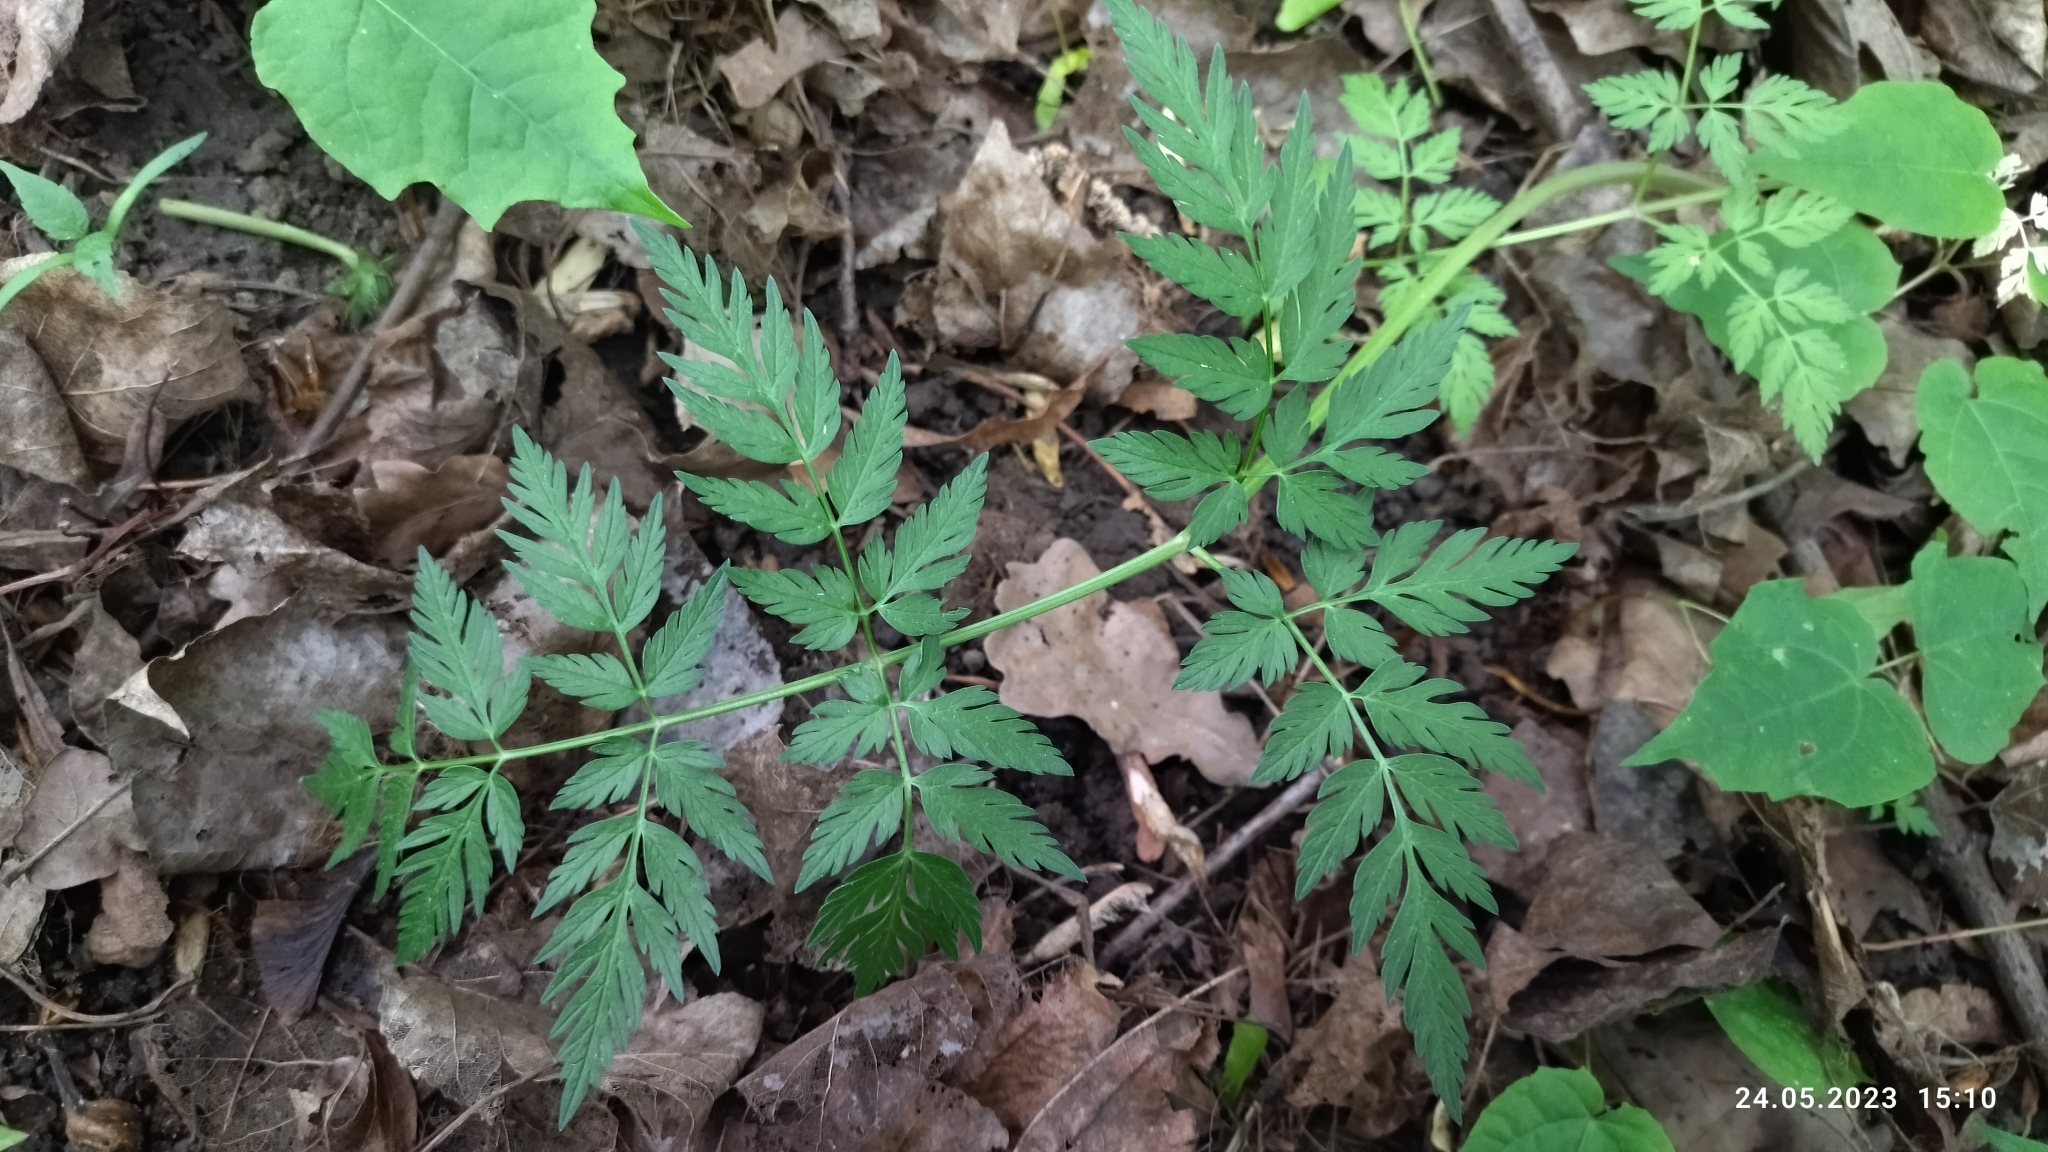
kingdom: Plantae
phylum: Tracheophyta
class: Magnoliopsida
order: Apiales
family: Apiaceae
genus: Anthriscus
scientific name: Anthriscus sylvestris
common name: Cow parsley
